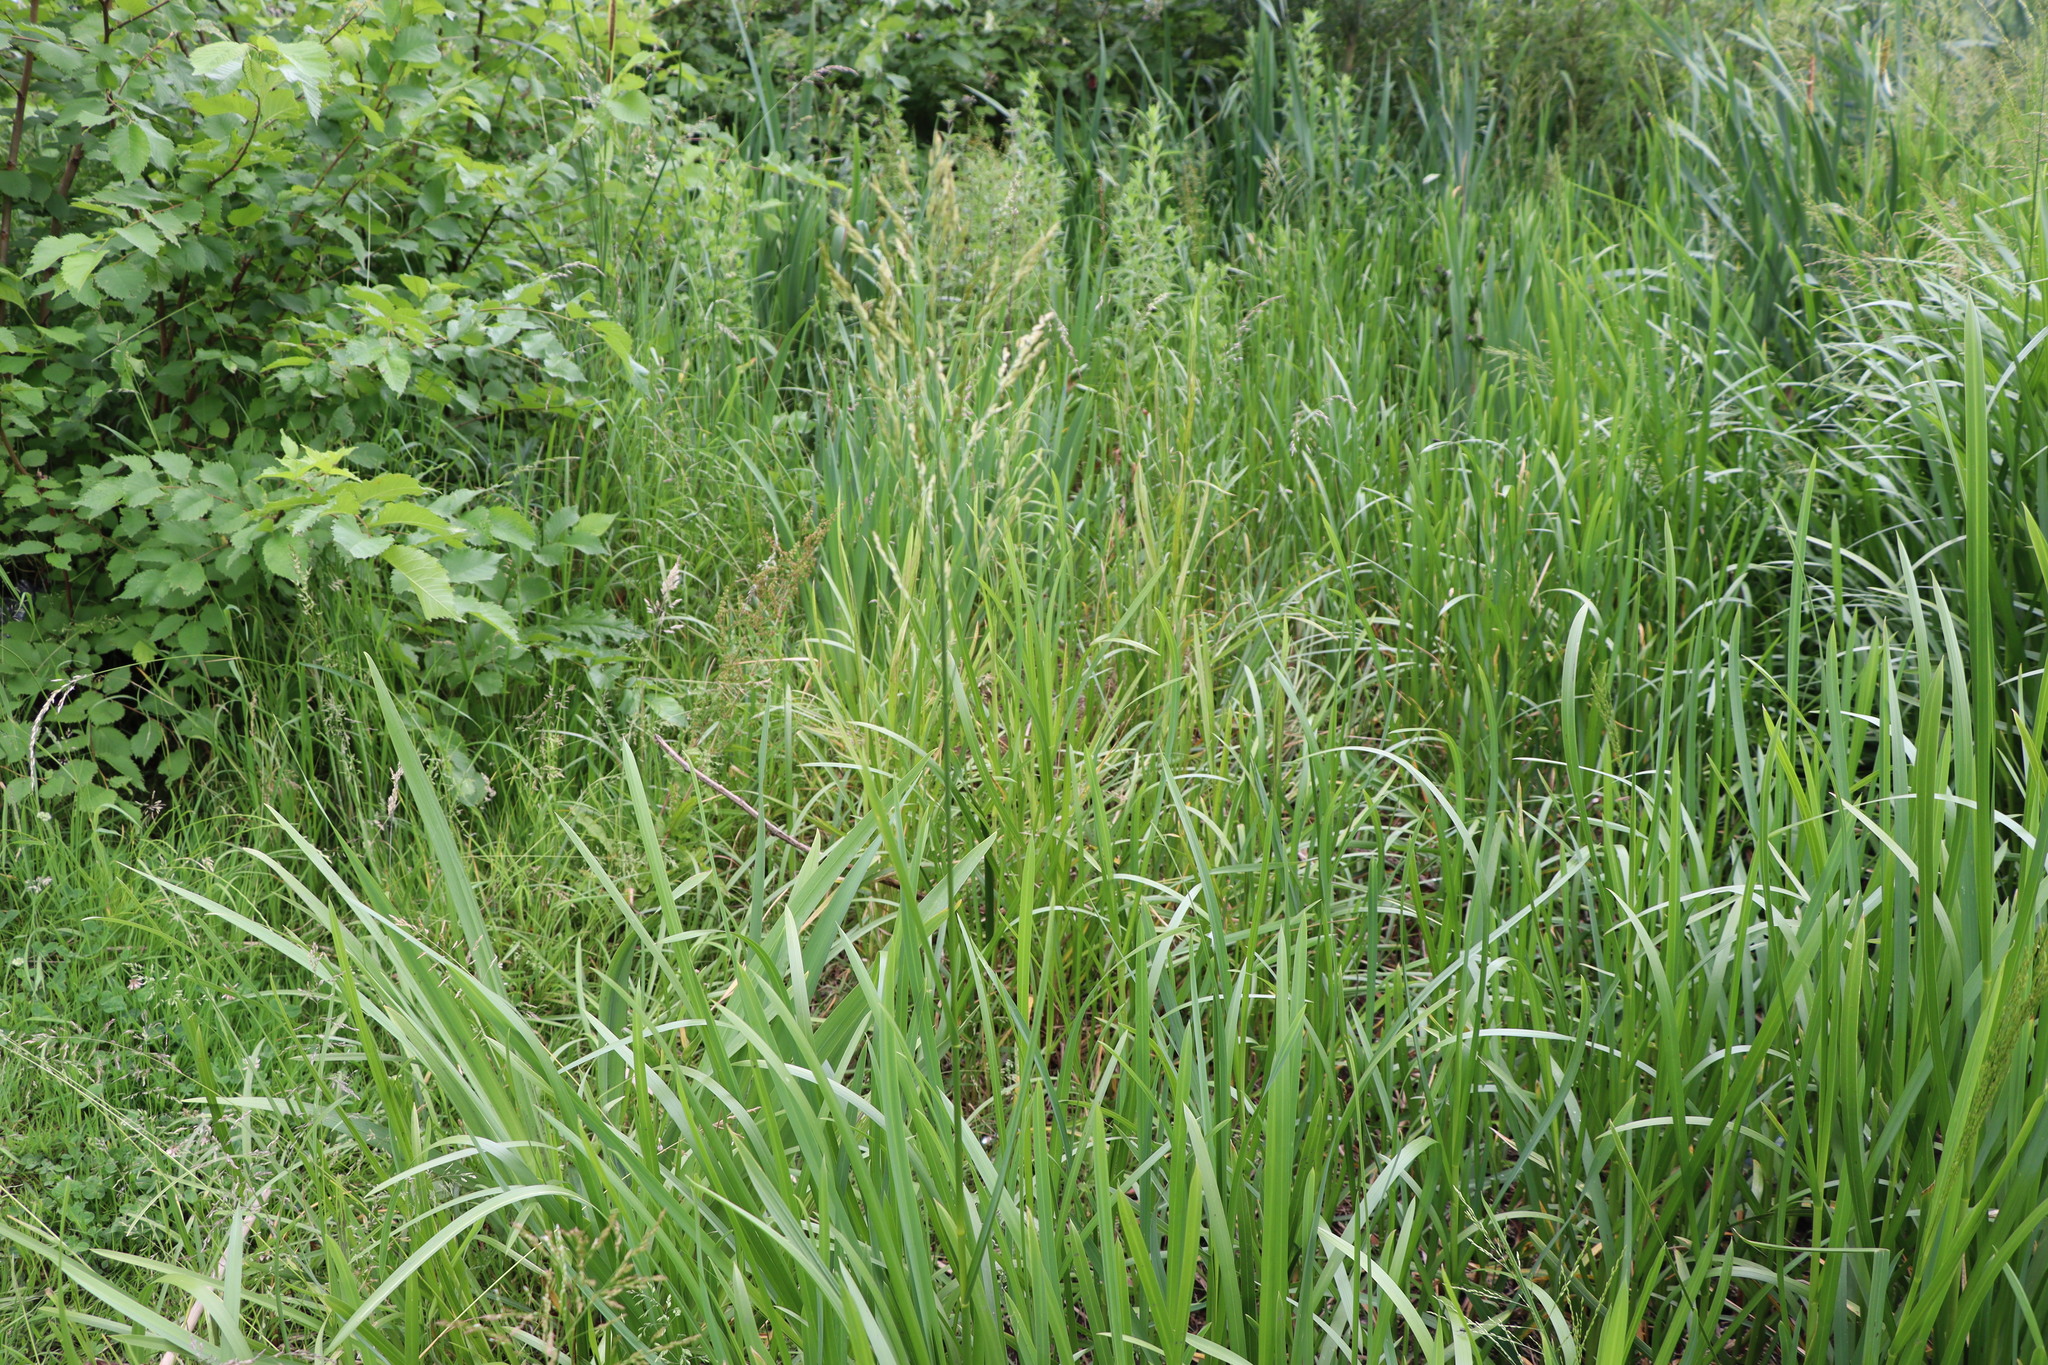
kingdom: Plantae
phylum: Tracheophyta
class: Liliopsida
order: Poales
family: Poaceae
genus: Glyceria
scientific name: Glyceria maxima
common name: Reed mannagrass
